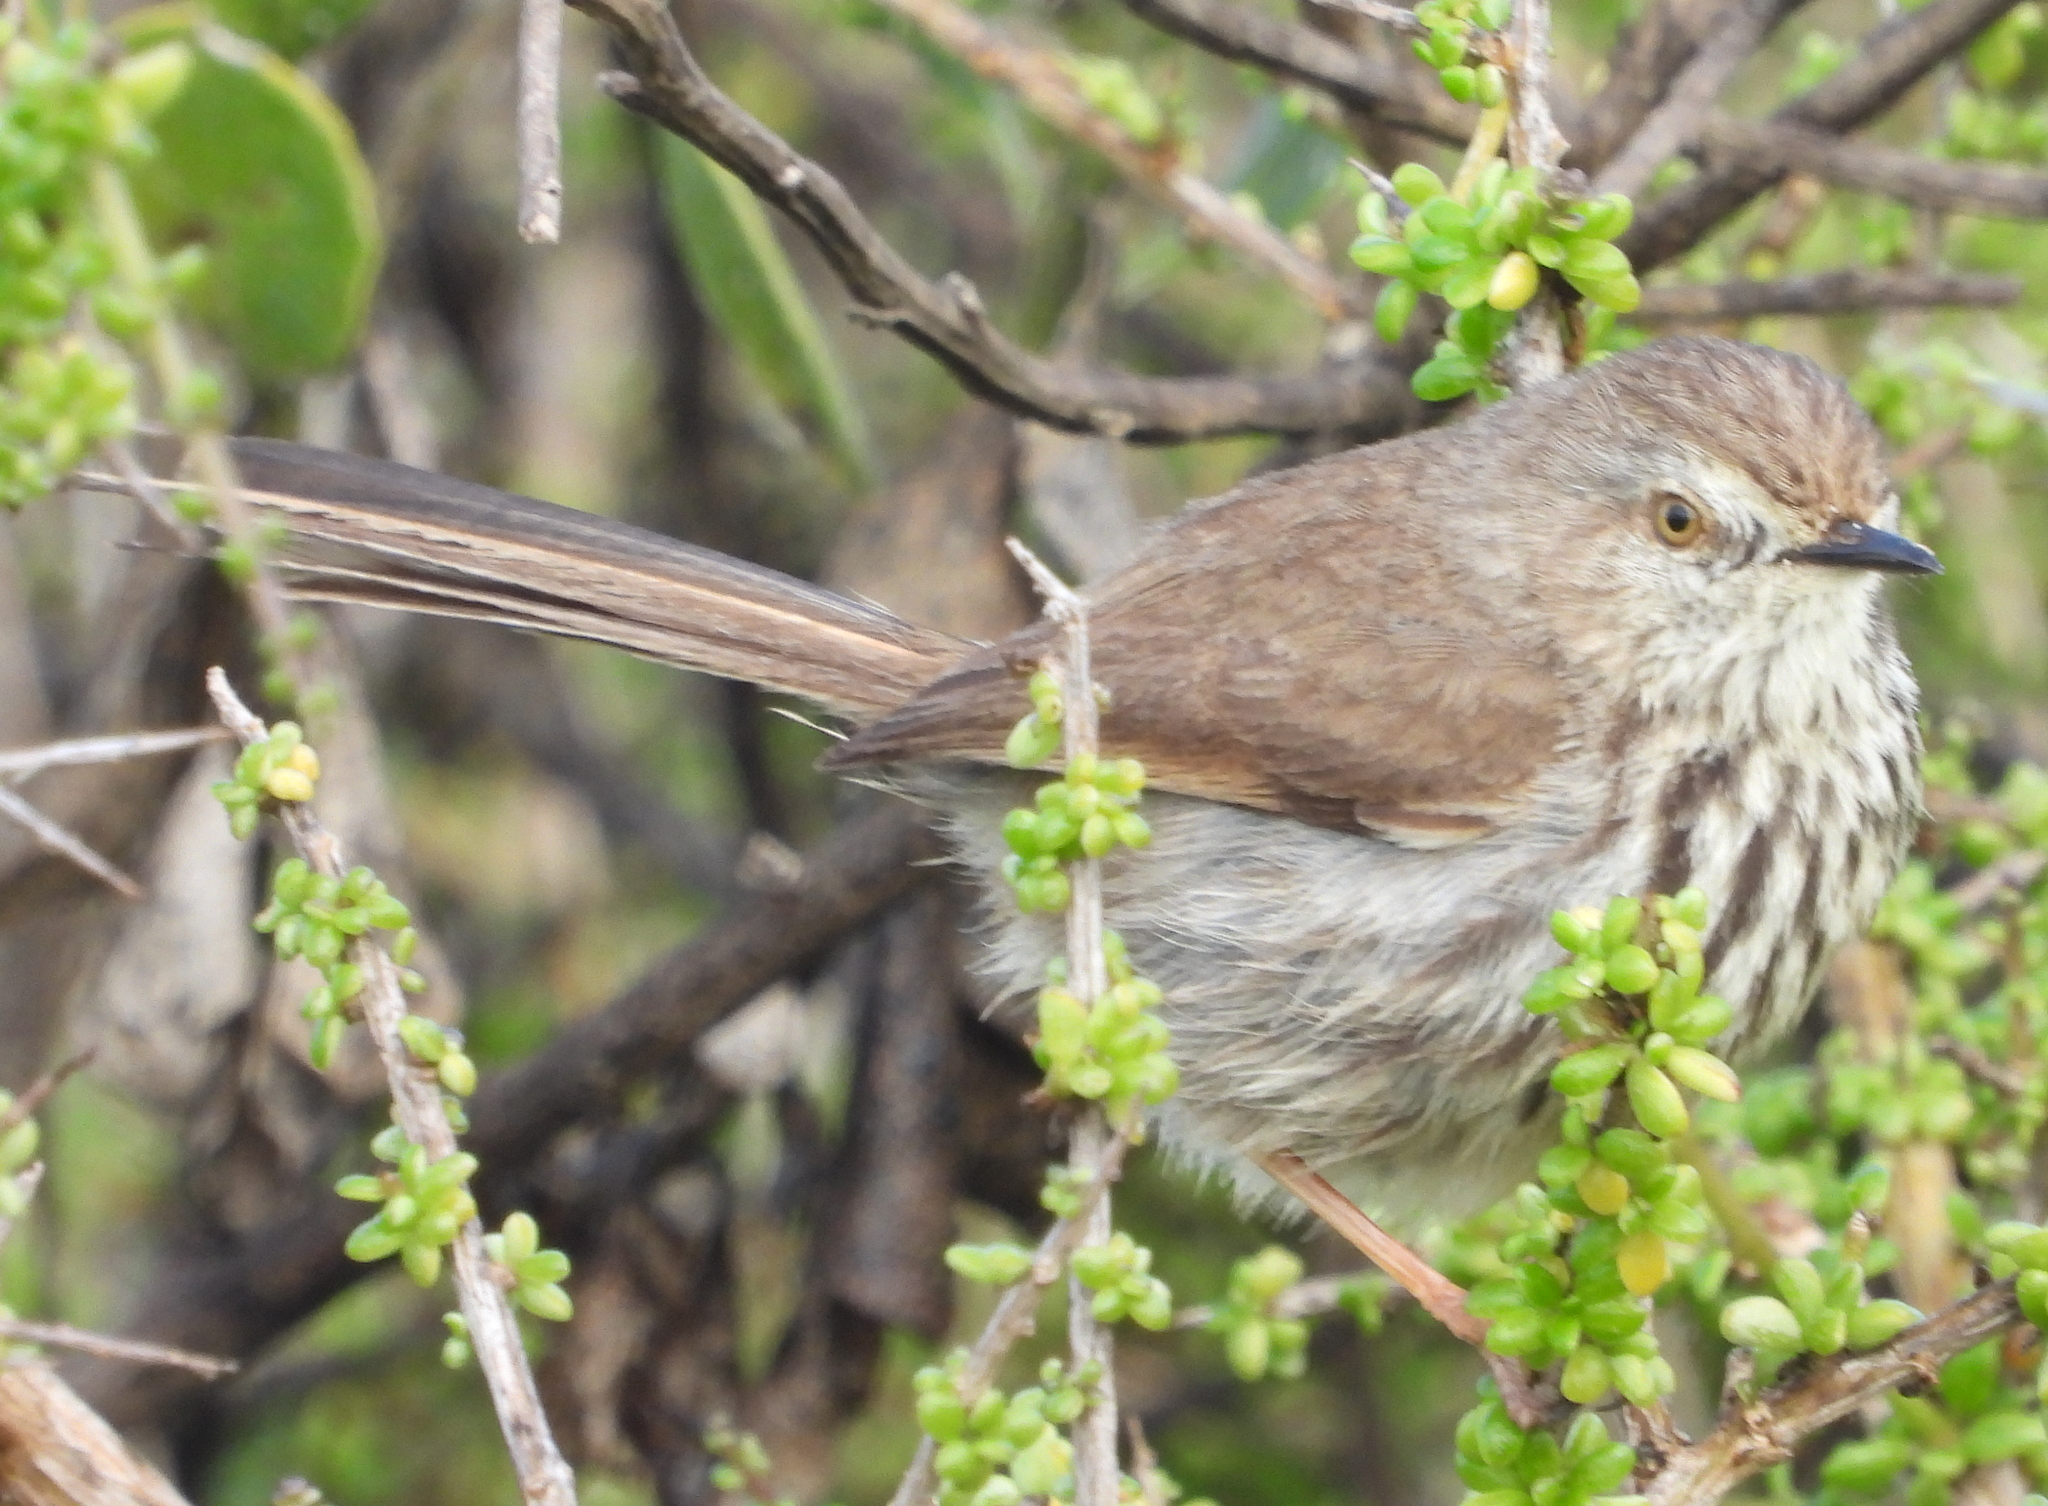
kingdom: Animalia
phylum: Chordata
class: Aves
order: Passeriformes
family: Cisticolidae
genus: Prinia
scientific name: Prinia maculosa
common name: Karoo prinia
